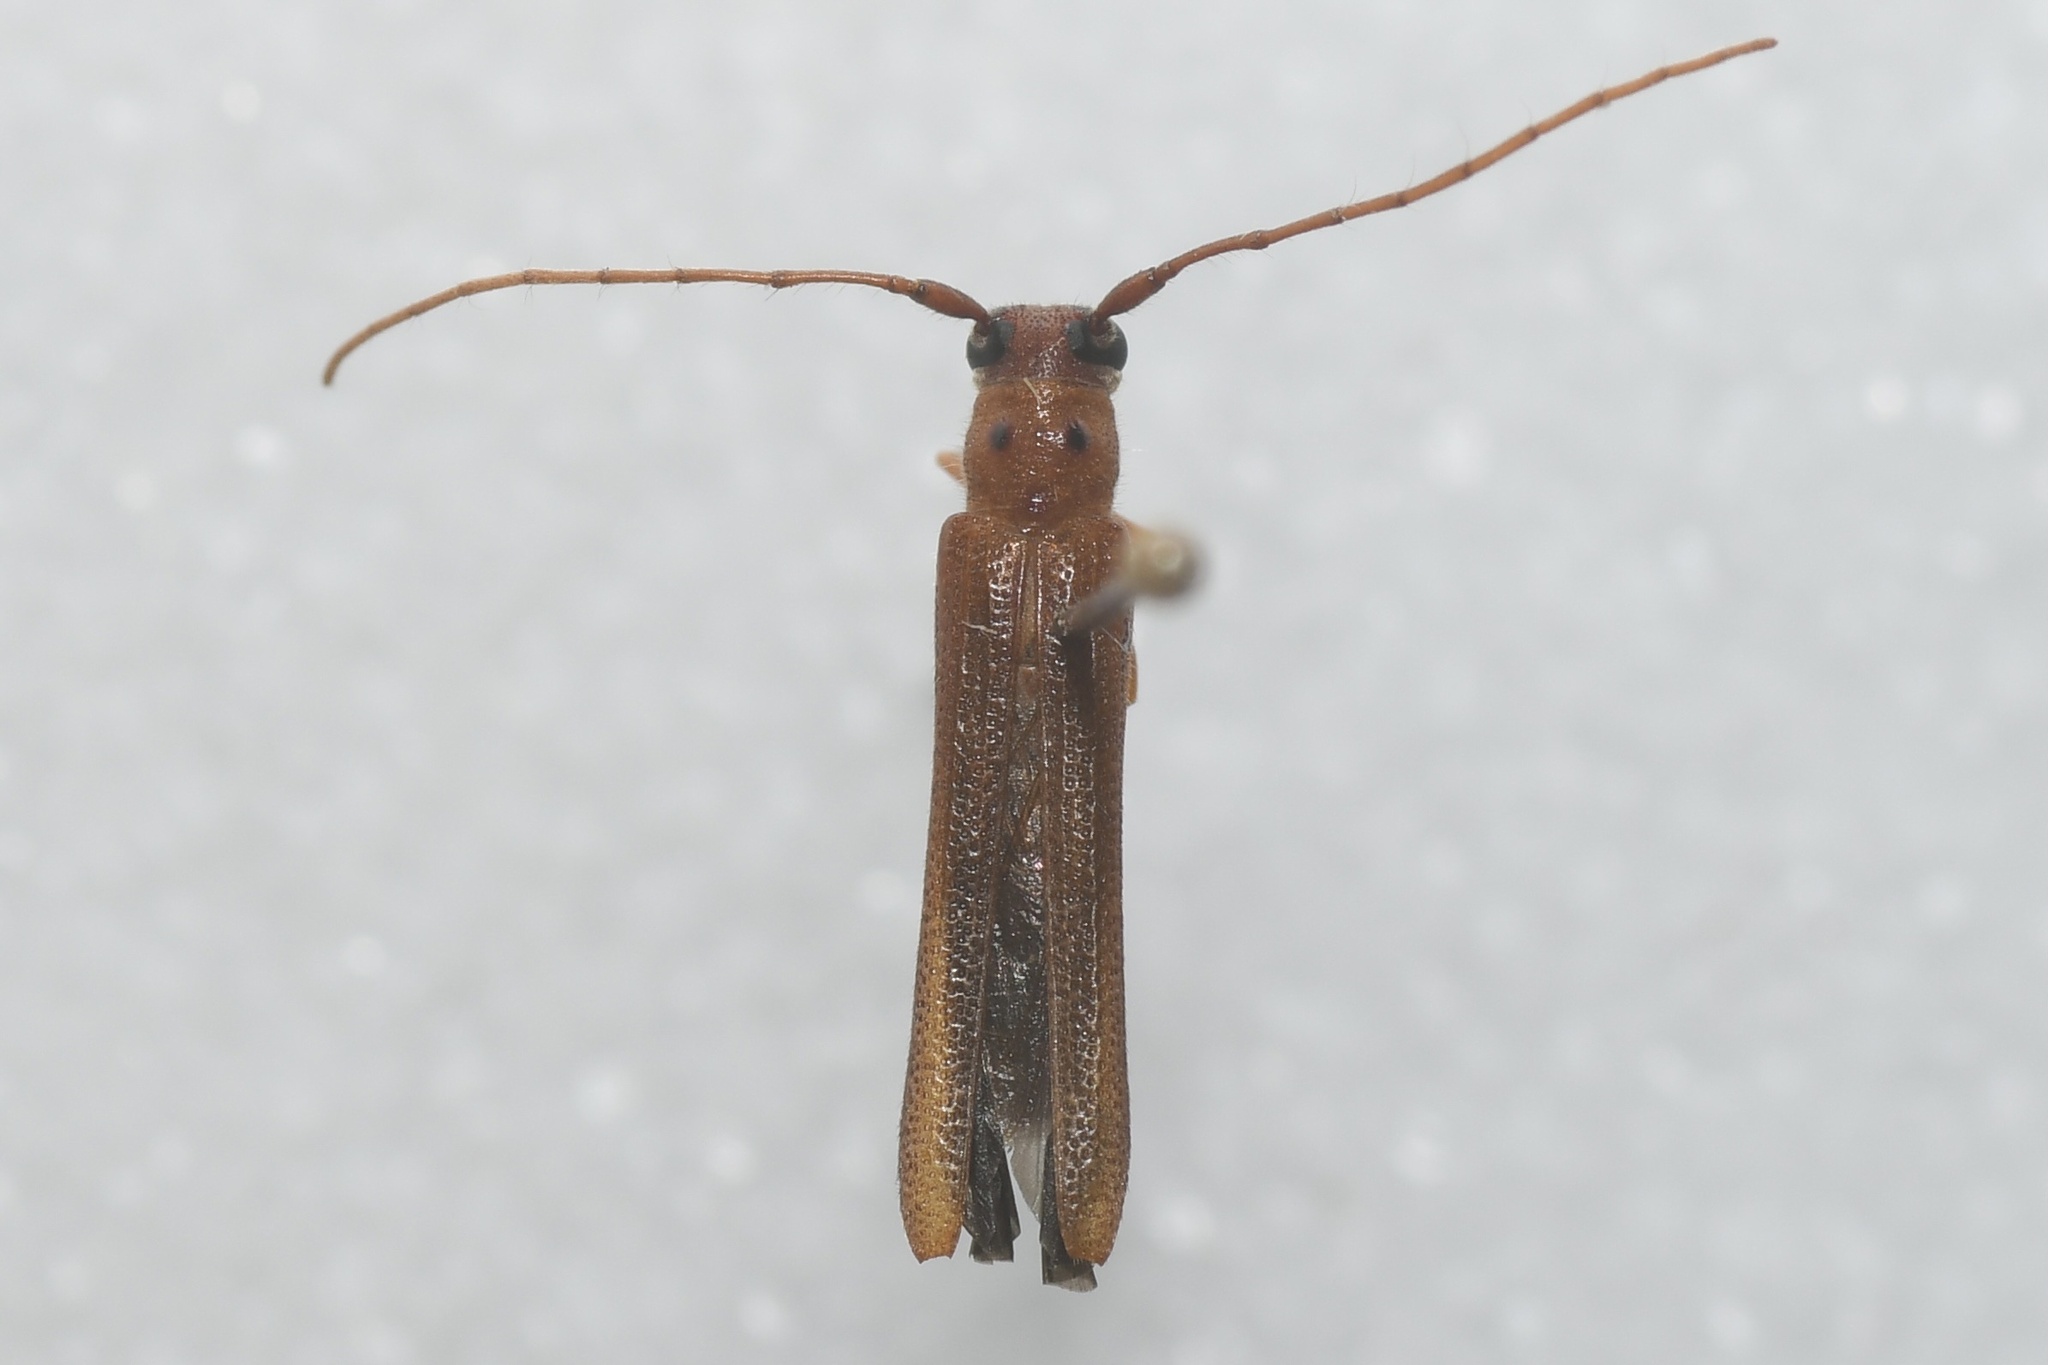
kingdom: Animalia
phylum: Arthropoda
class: Insecta
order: Coleoptera
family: Cerambycidae
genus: Oberea
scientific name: Oberea deficiens
